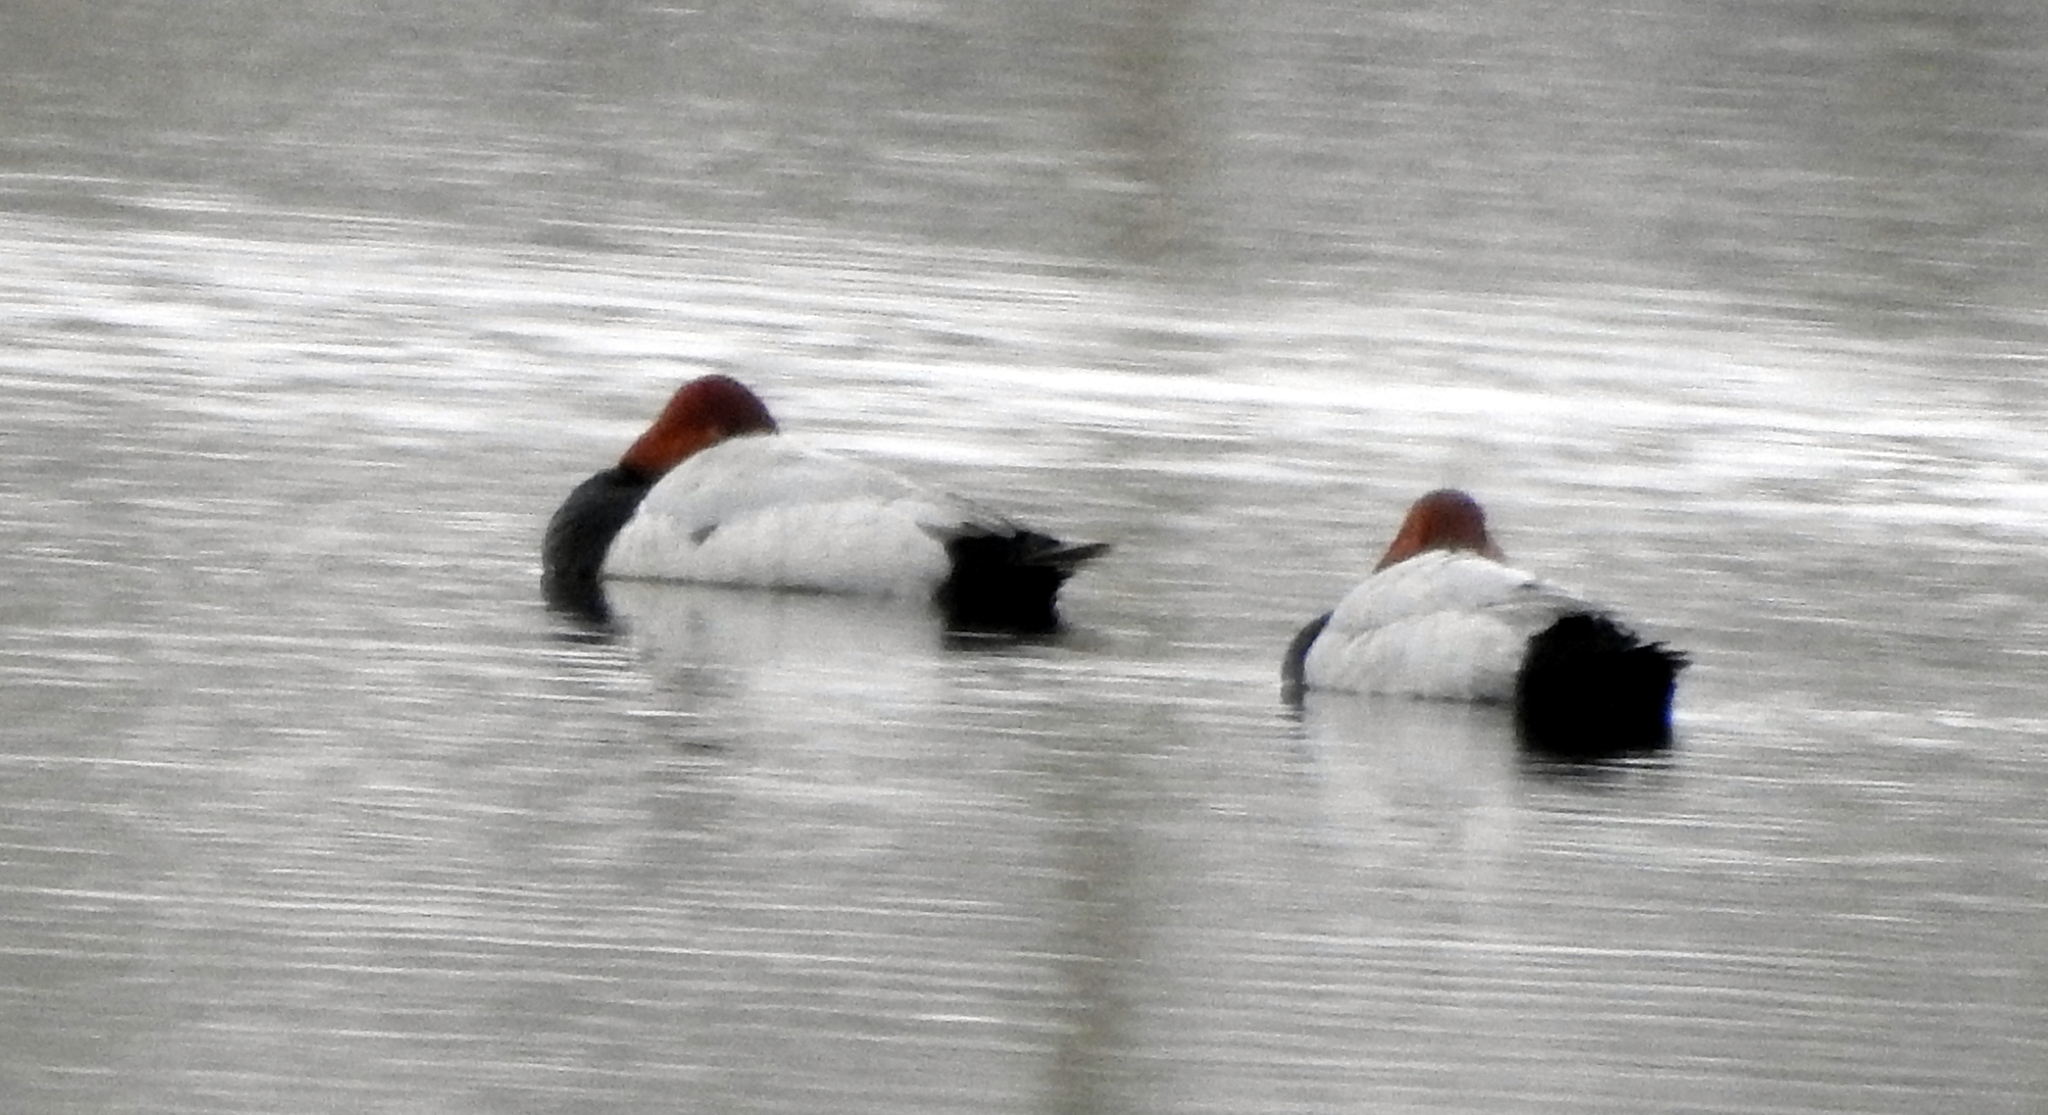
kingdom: Animalia
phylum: Chordata
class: Aves
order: Anseriformes
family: Anatidae
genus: Aythya
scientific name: Aythya ferina
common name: Common pochard
